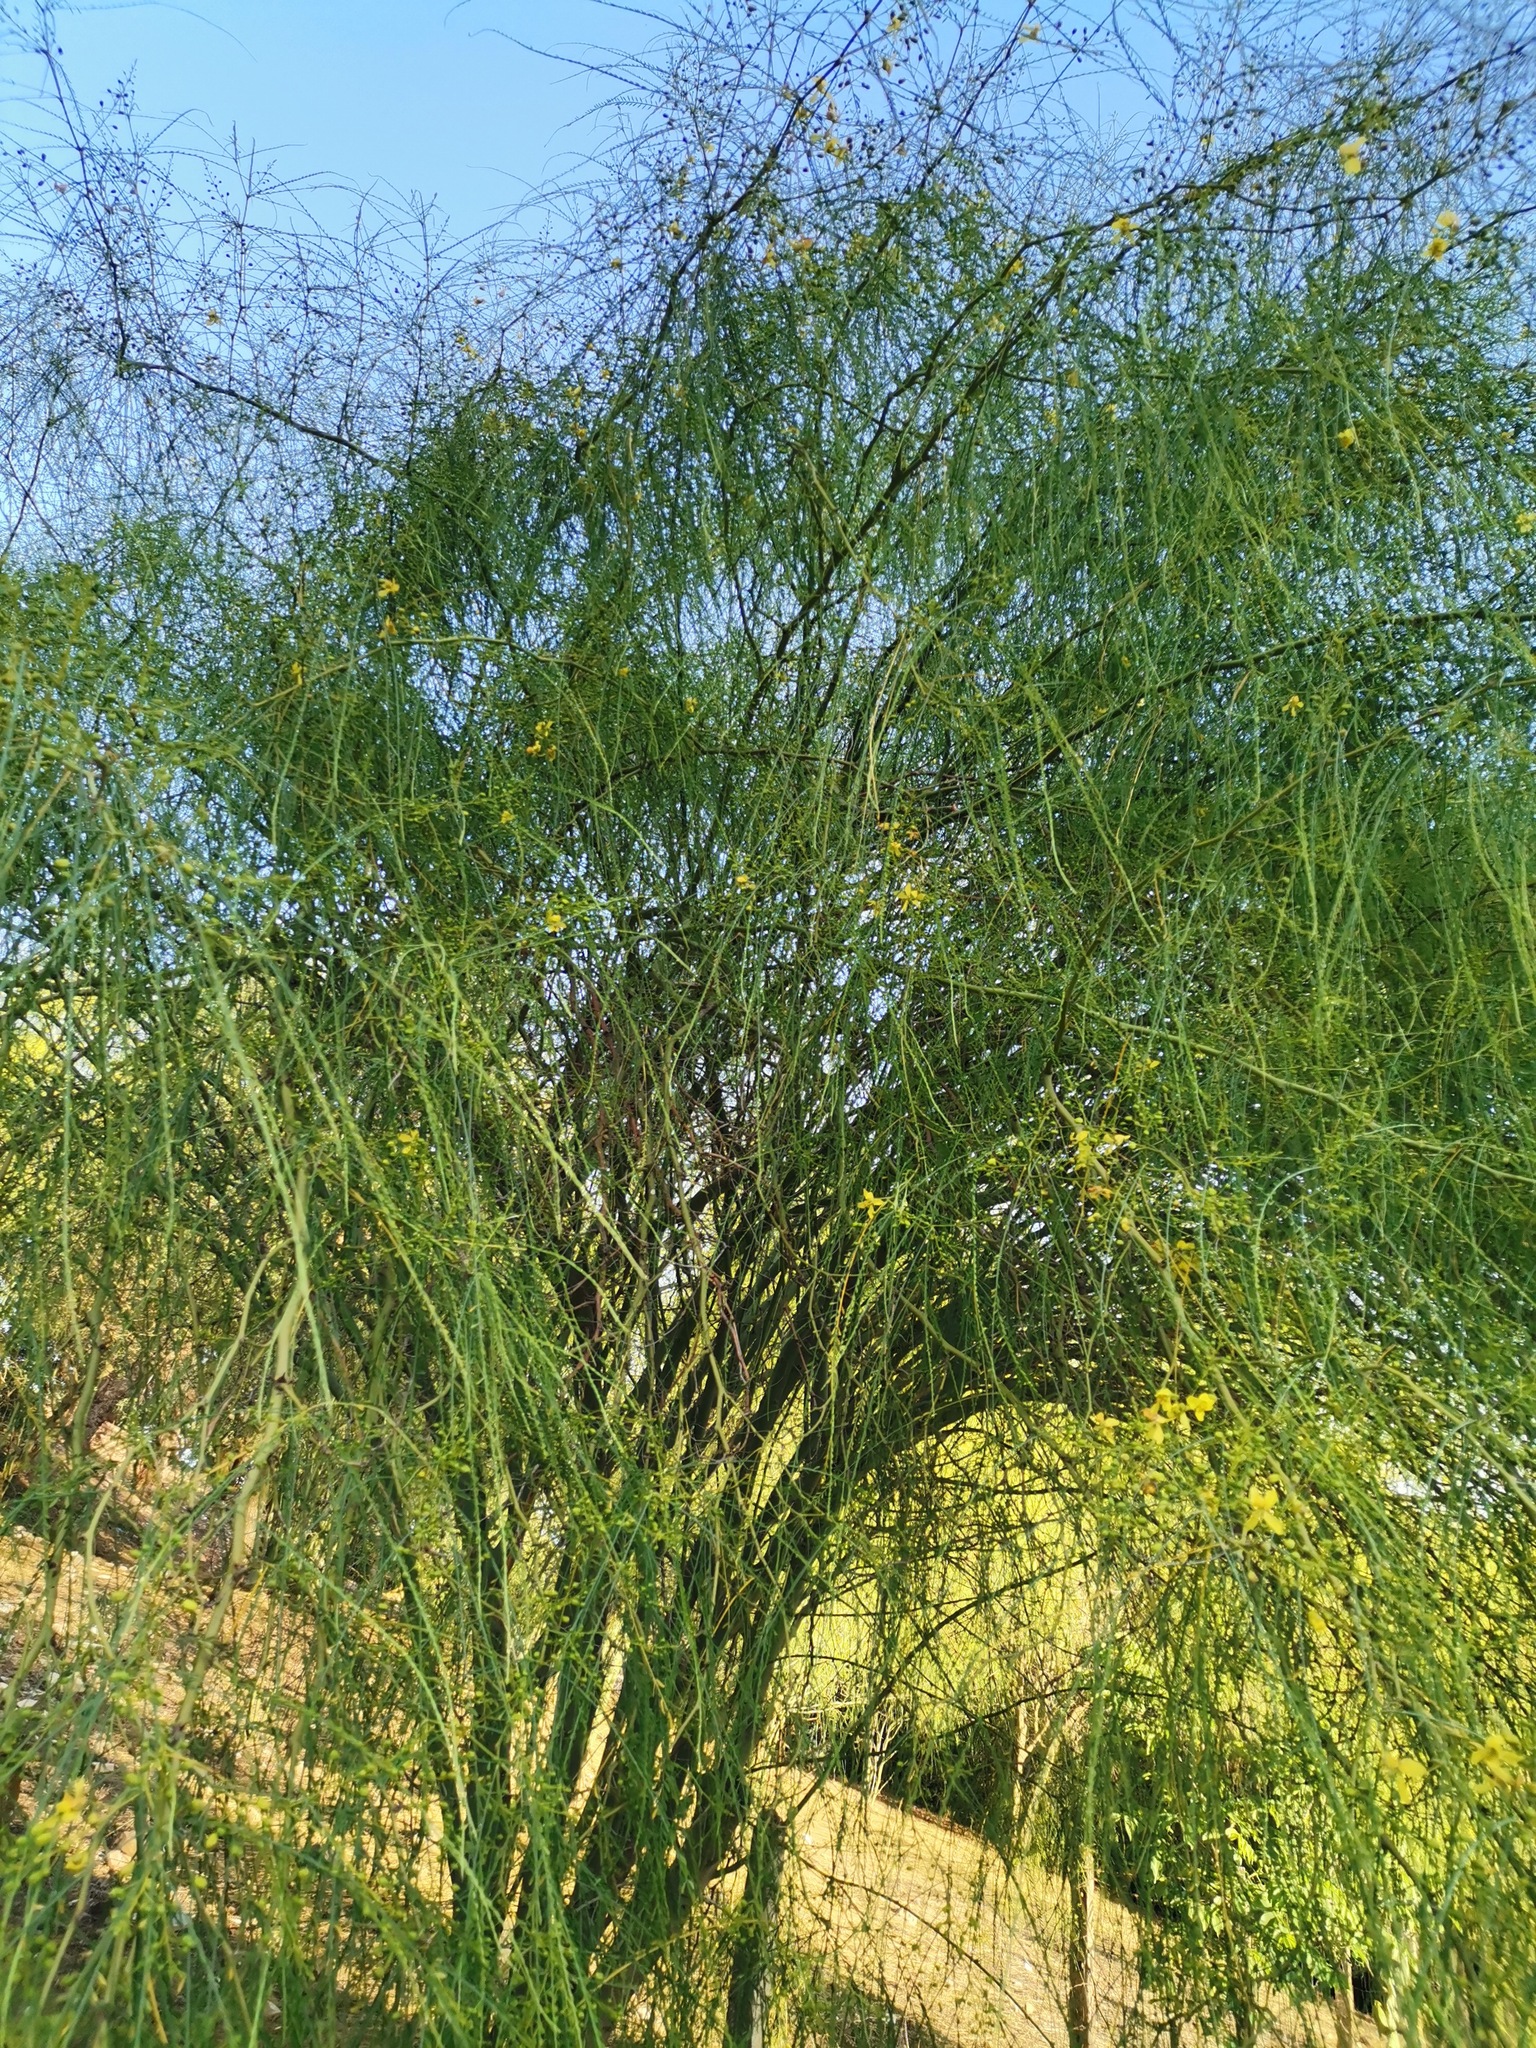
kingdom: Plantae
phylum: Tracheophyta
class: Magnoliopsida
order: Fabales
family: Fabaceae
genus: Parkinsonia
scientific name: Parkinsonia aculeata
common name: Jerusalem thorn
